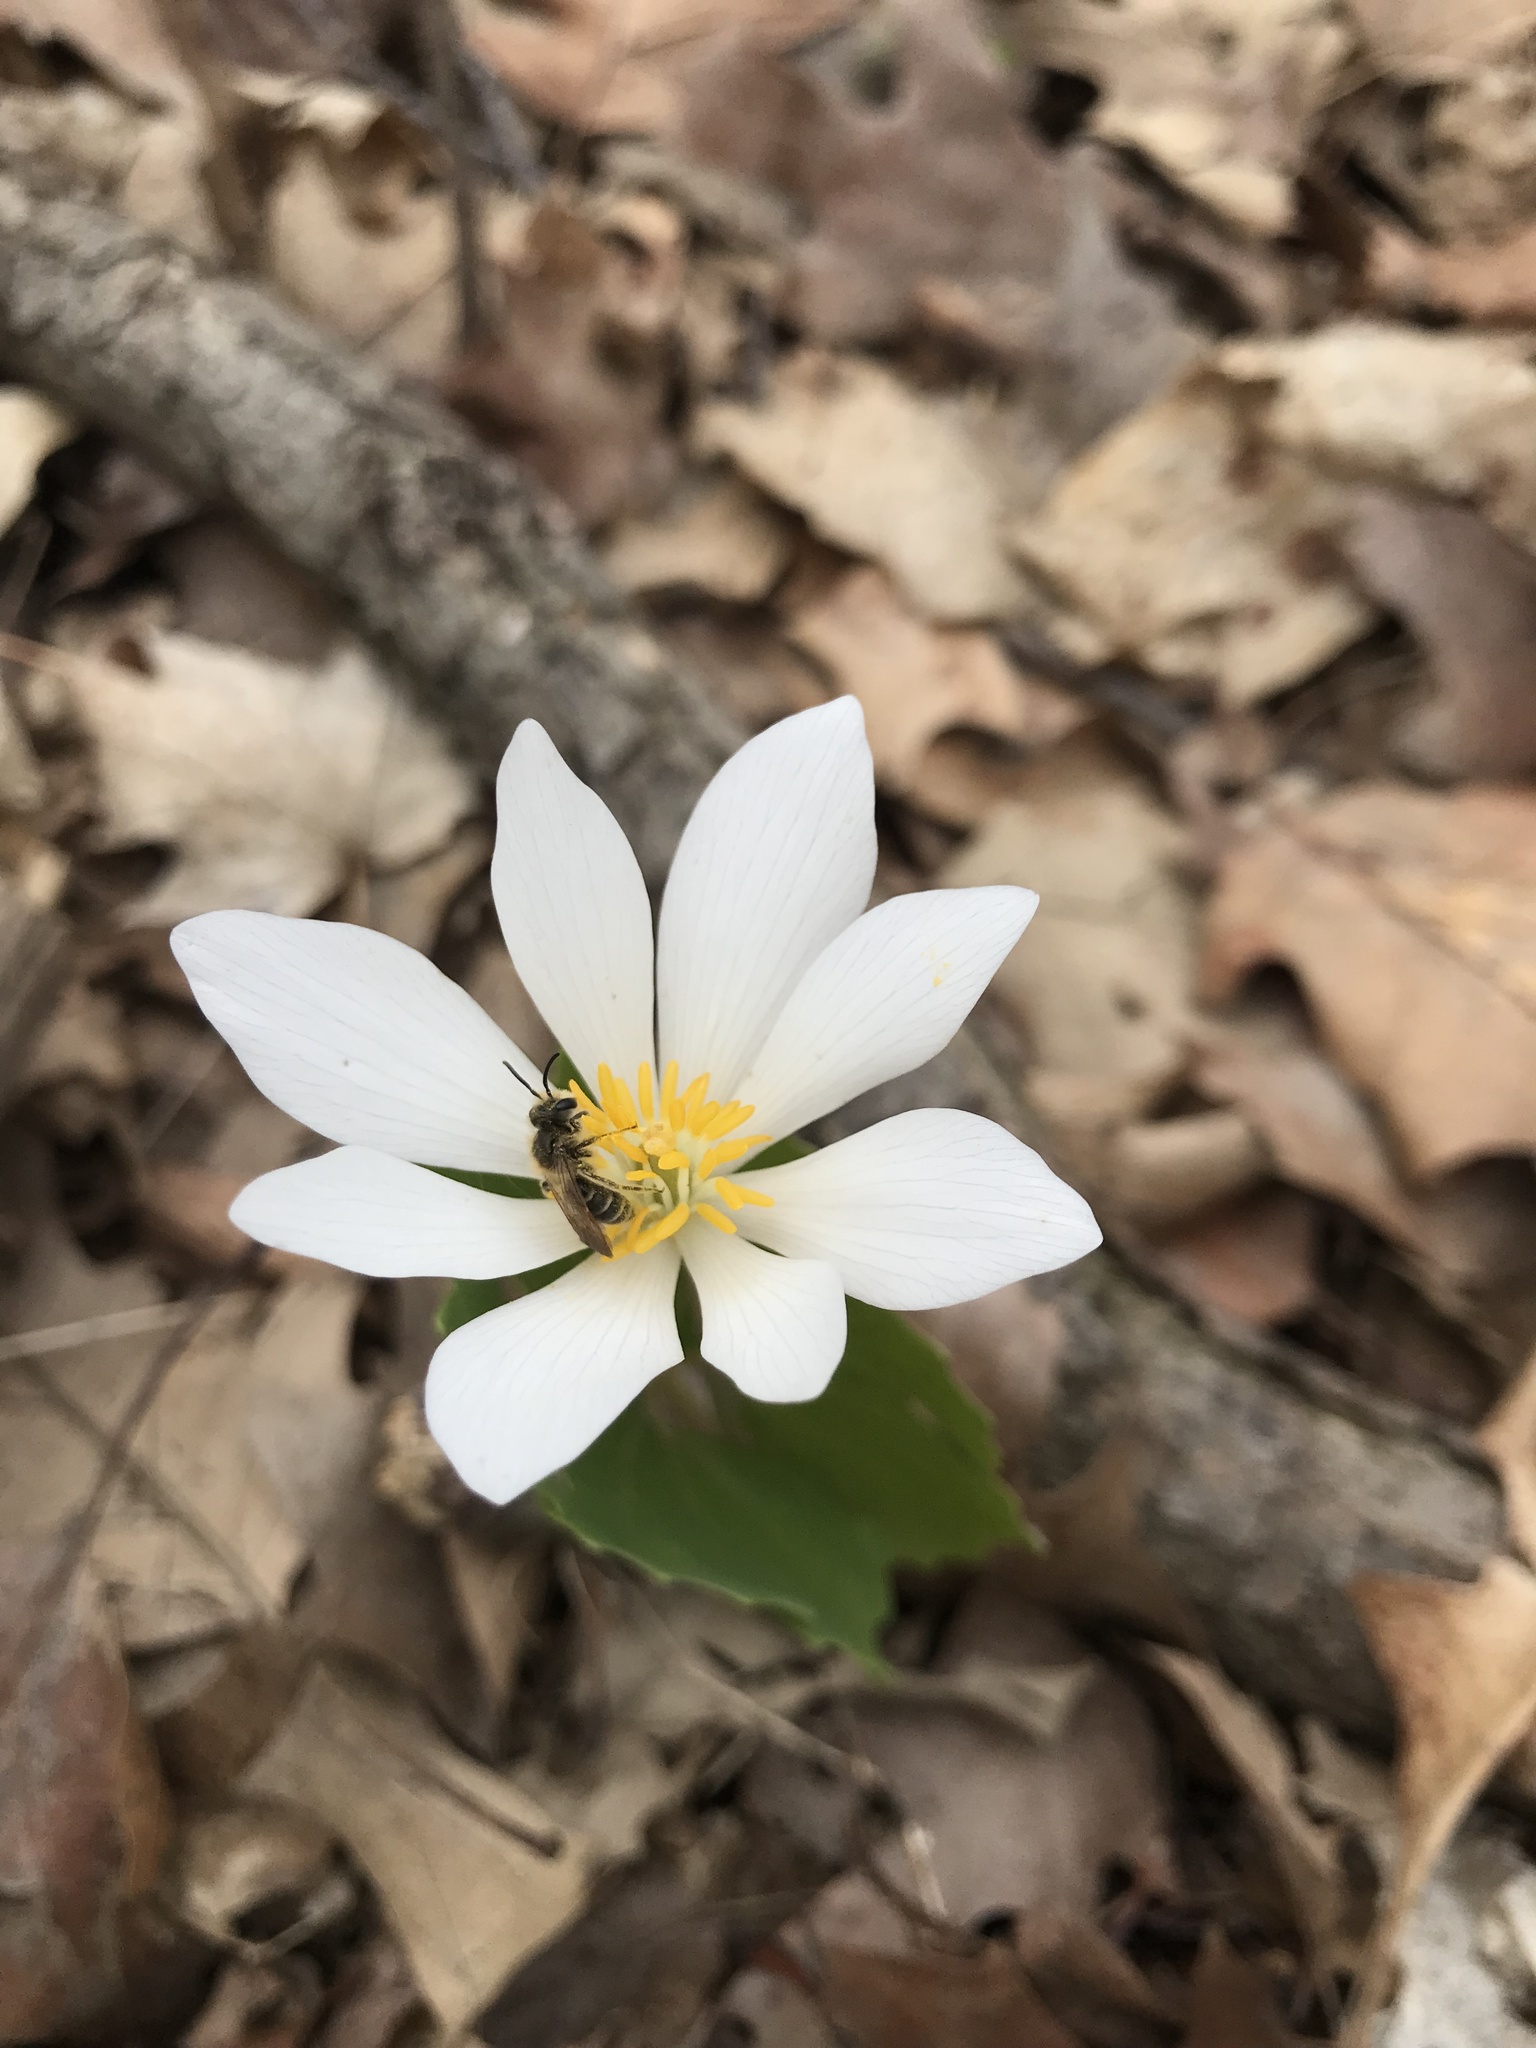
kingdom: Plantae
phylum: Tracheophyta
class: Magnoliopsida
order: Ranunculales
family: Papaveraceae
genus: Sanguinaria
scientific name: Sanguinaria canadensis
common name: Bloodroot
